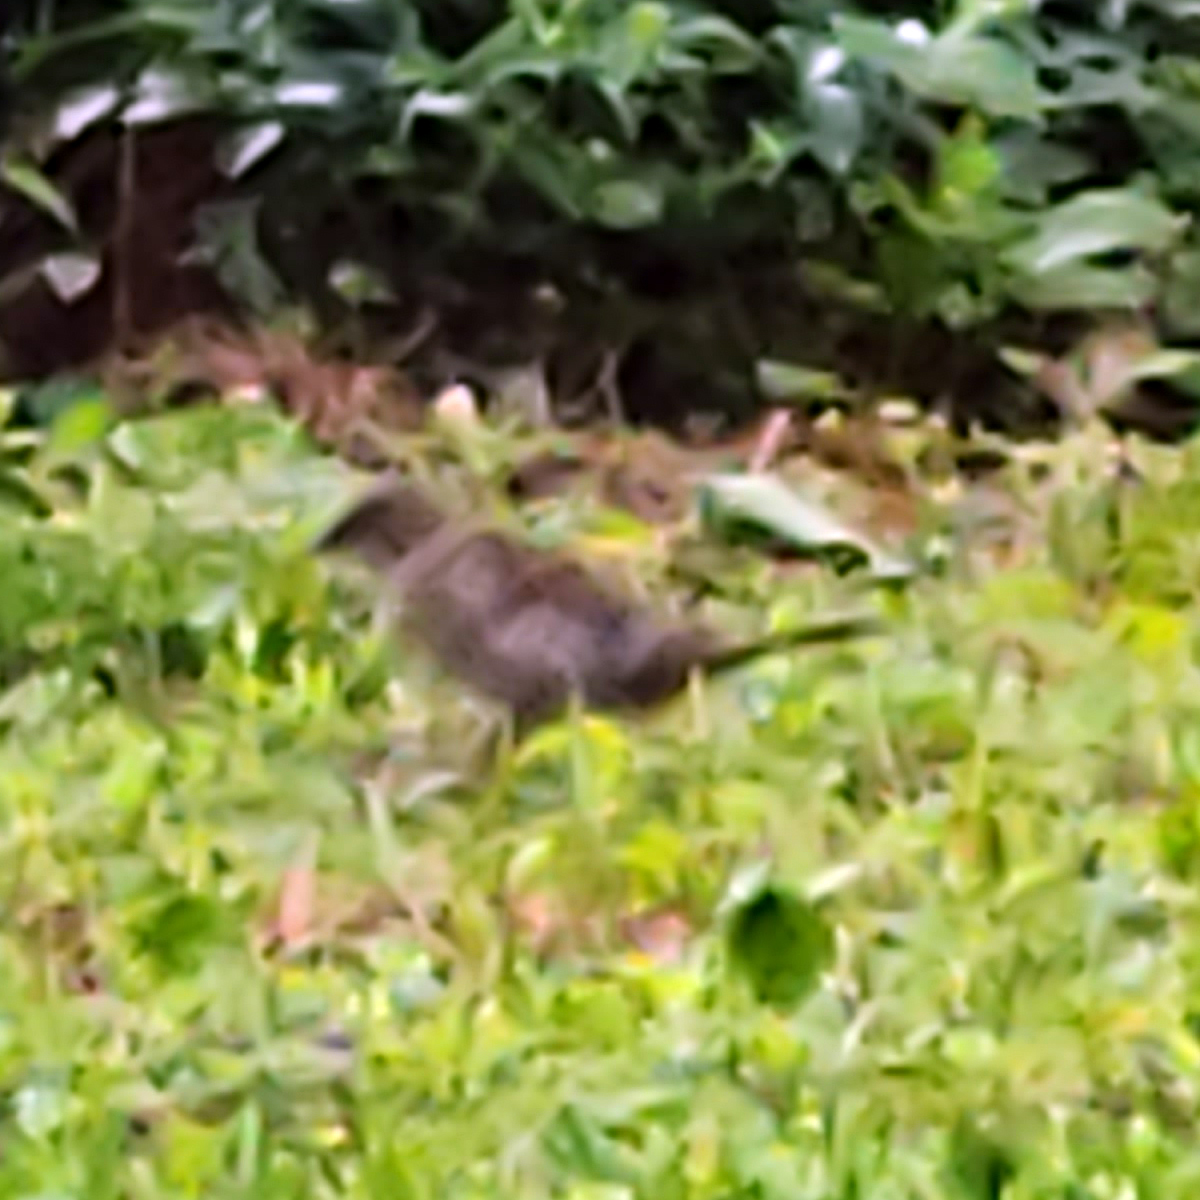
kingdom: Animalia
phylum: Chordata
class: Aves
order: Passeriformes
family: Passeridae
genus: Passer
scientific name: Passer domesticus
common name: House sparrow
